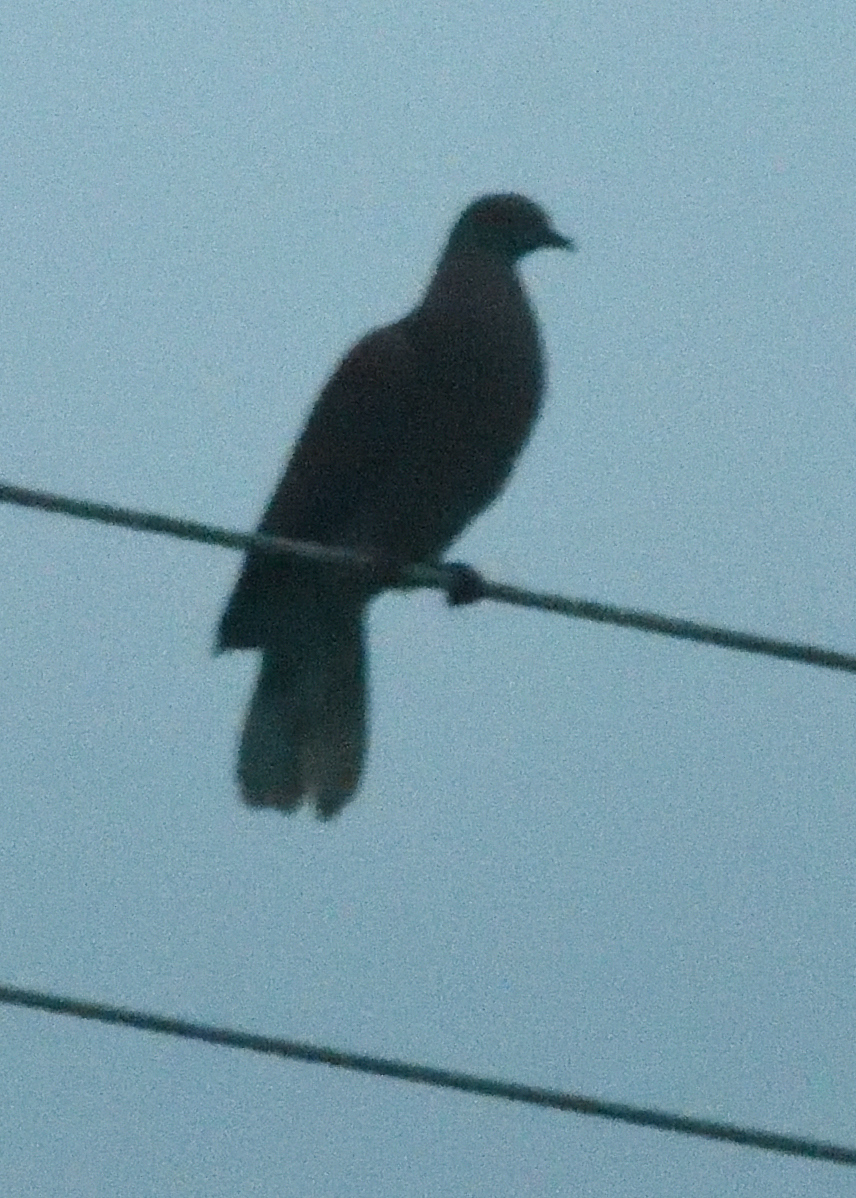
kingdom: Animalia
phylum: Chordata
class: Aves
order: Columbiformes
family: Columbidae
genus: Patagioenas
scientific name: Patagioenas cayennensis
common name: Pale-vented pigeon
